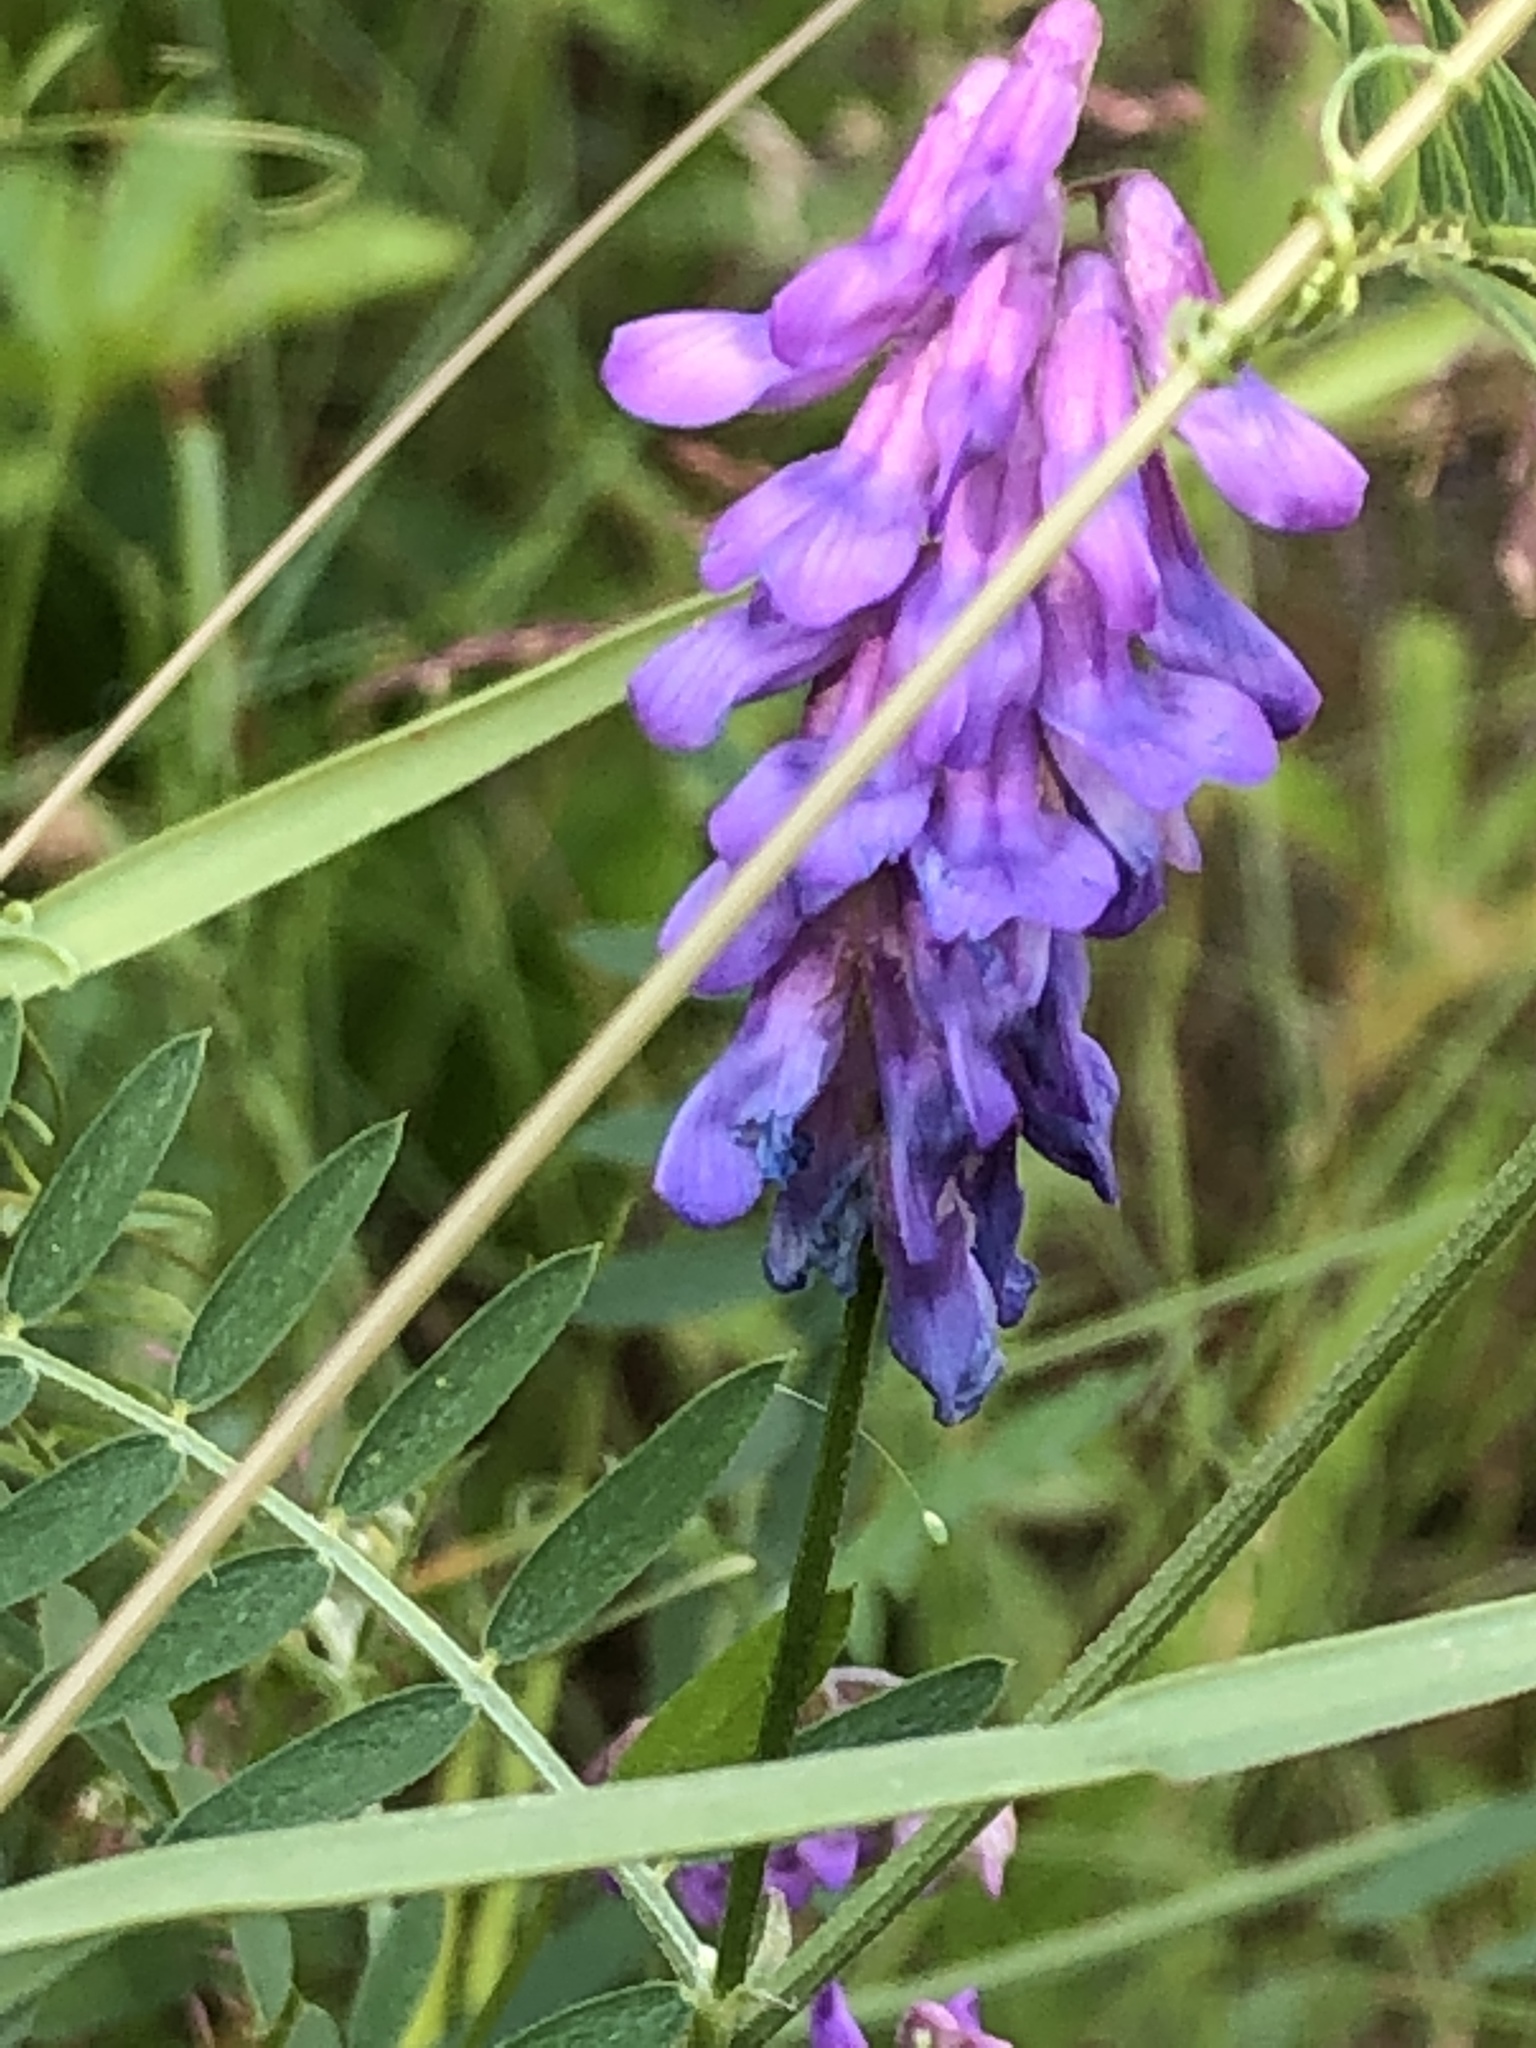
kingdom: Plantae
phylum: Tracheophyta
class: Magnoliopsida
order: Fabales
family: Fabaceae
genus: Vicia
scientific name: Vicia cracca
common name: Bird vetch
